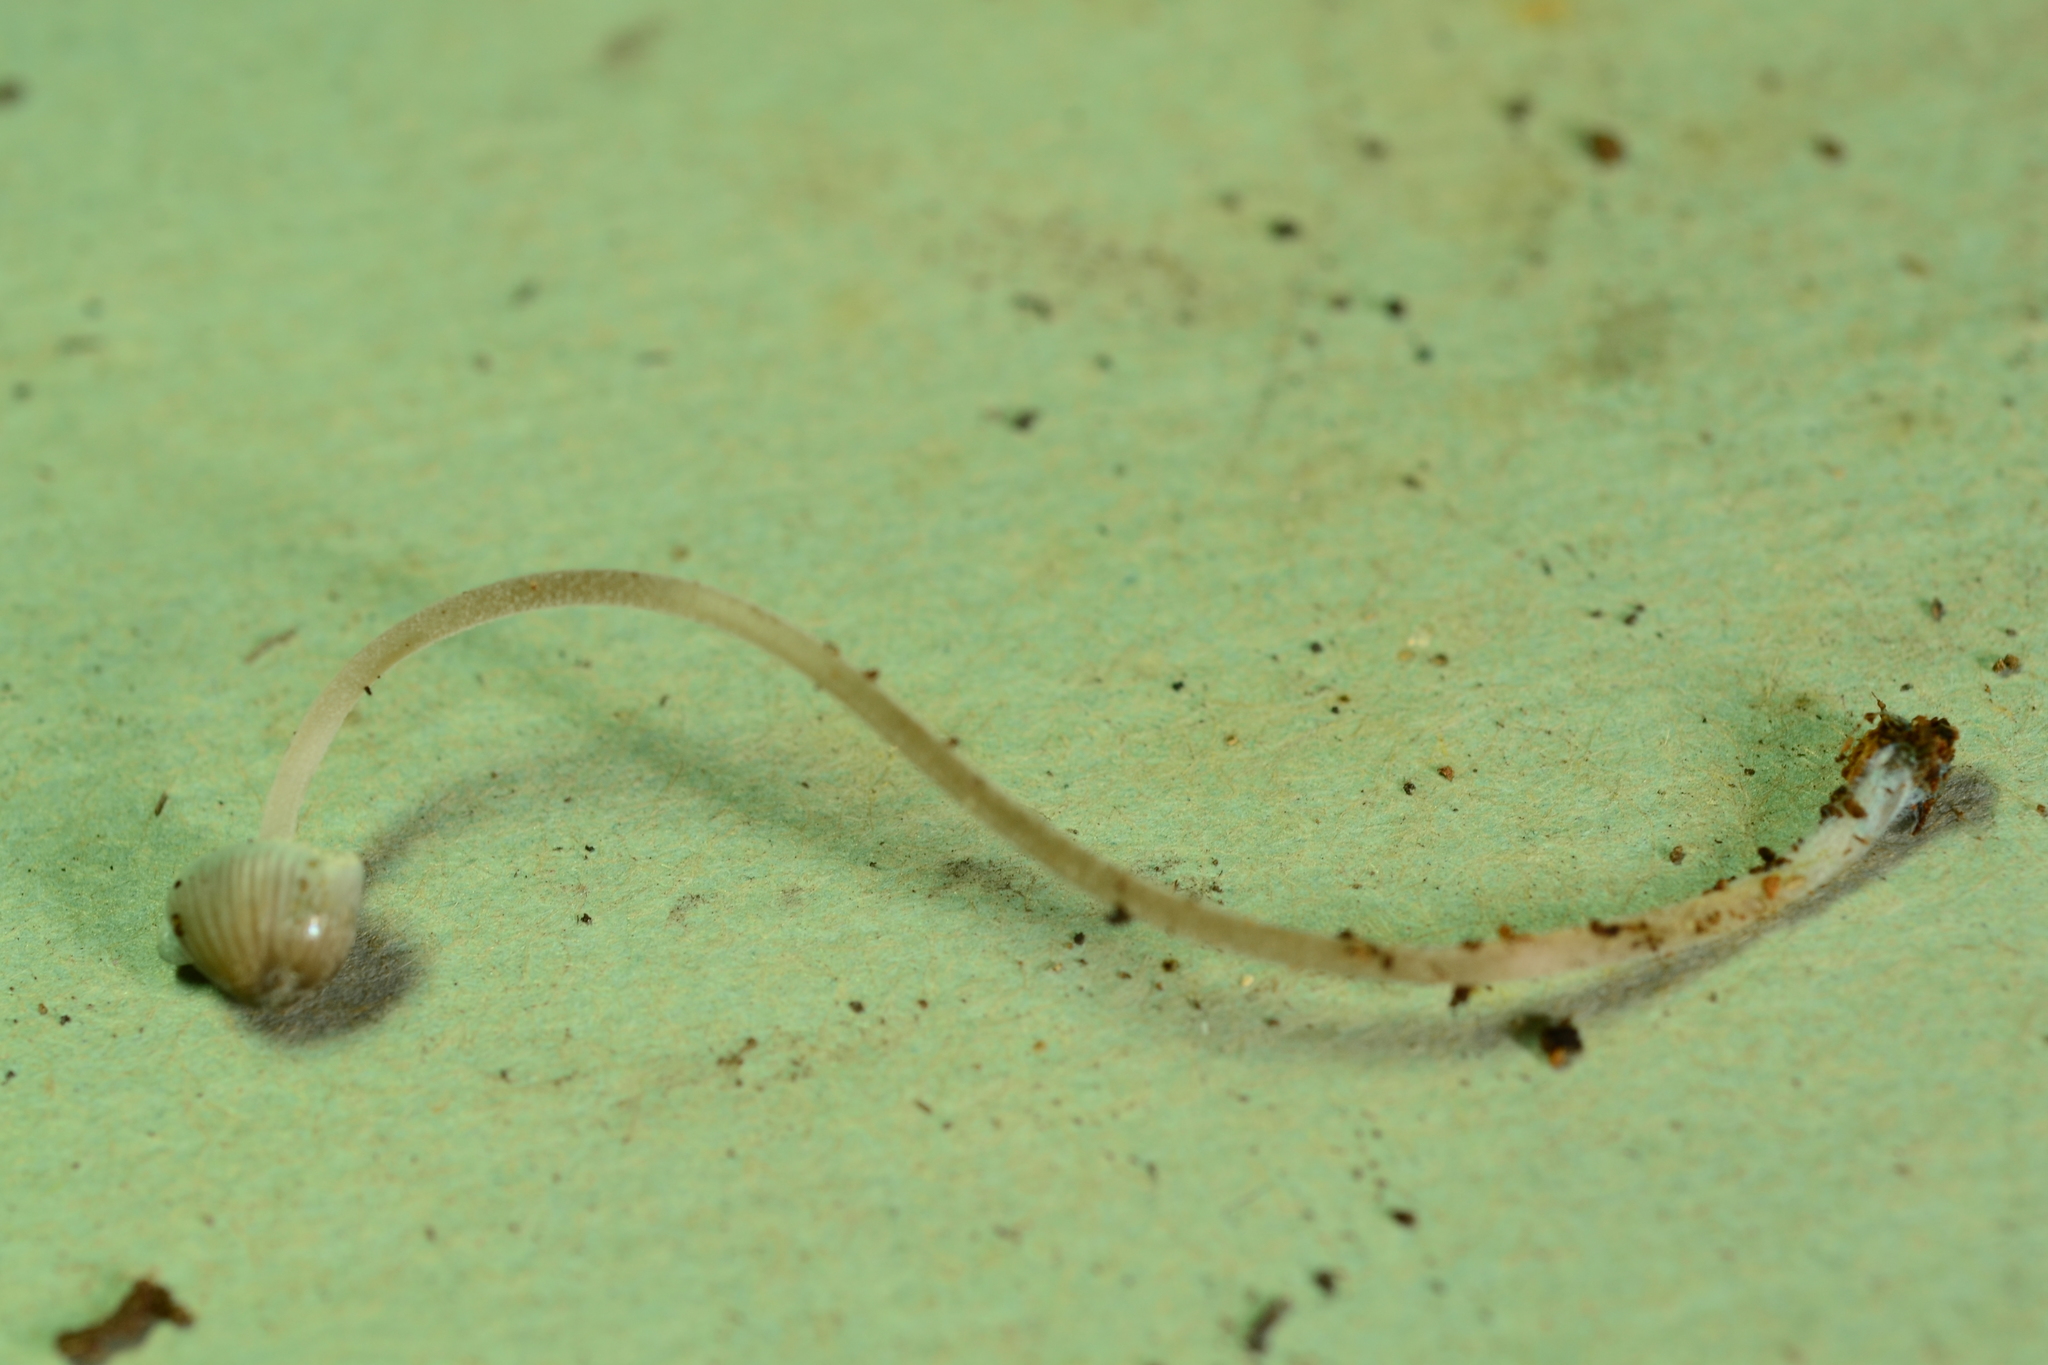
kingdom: Fungi
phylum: Basidiomycota
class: Agaricomycetes
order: Agaricales
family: Mycenaceae
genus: Mycena
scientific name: Mycena subcaerulea
